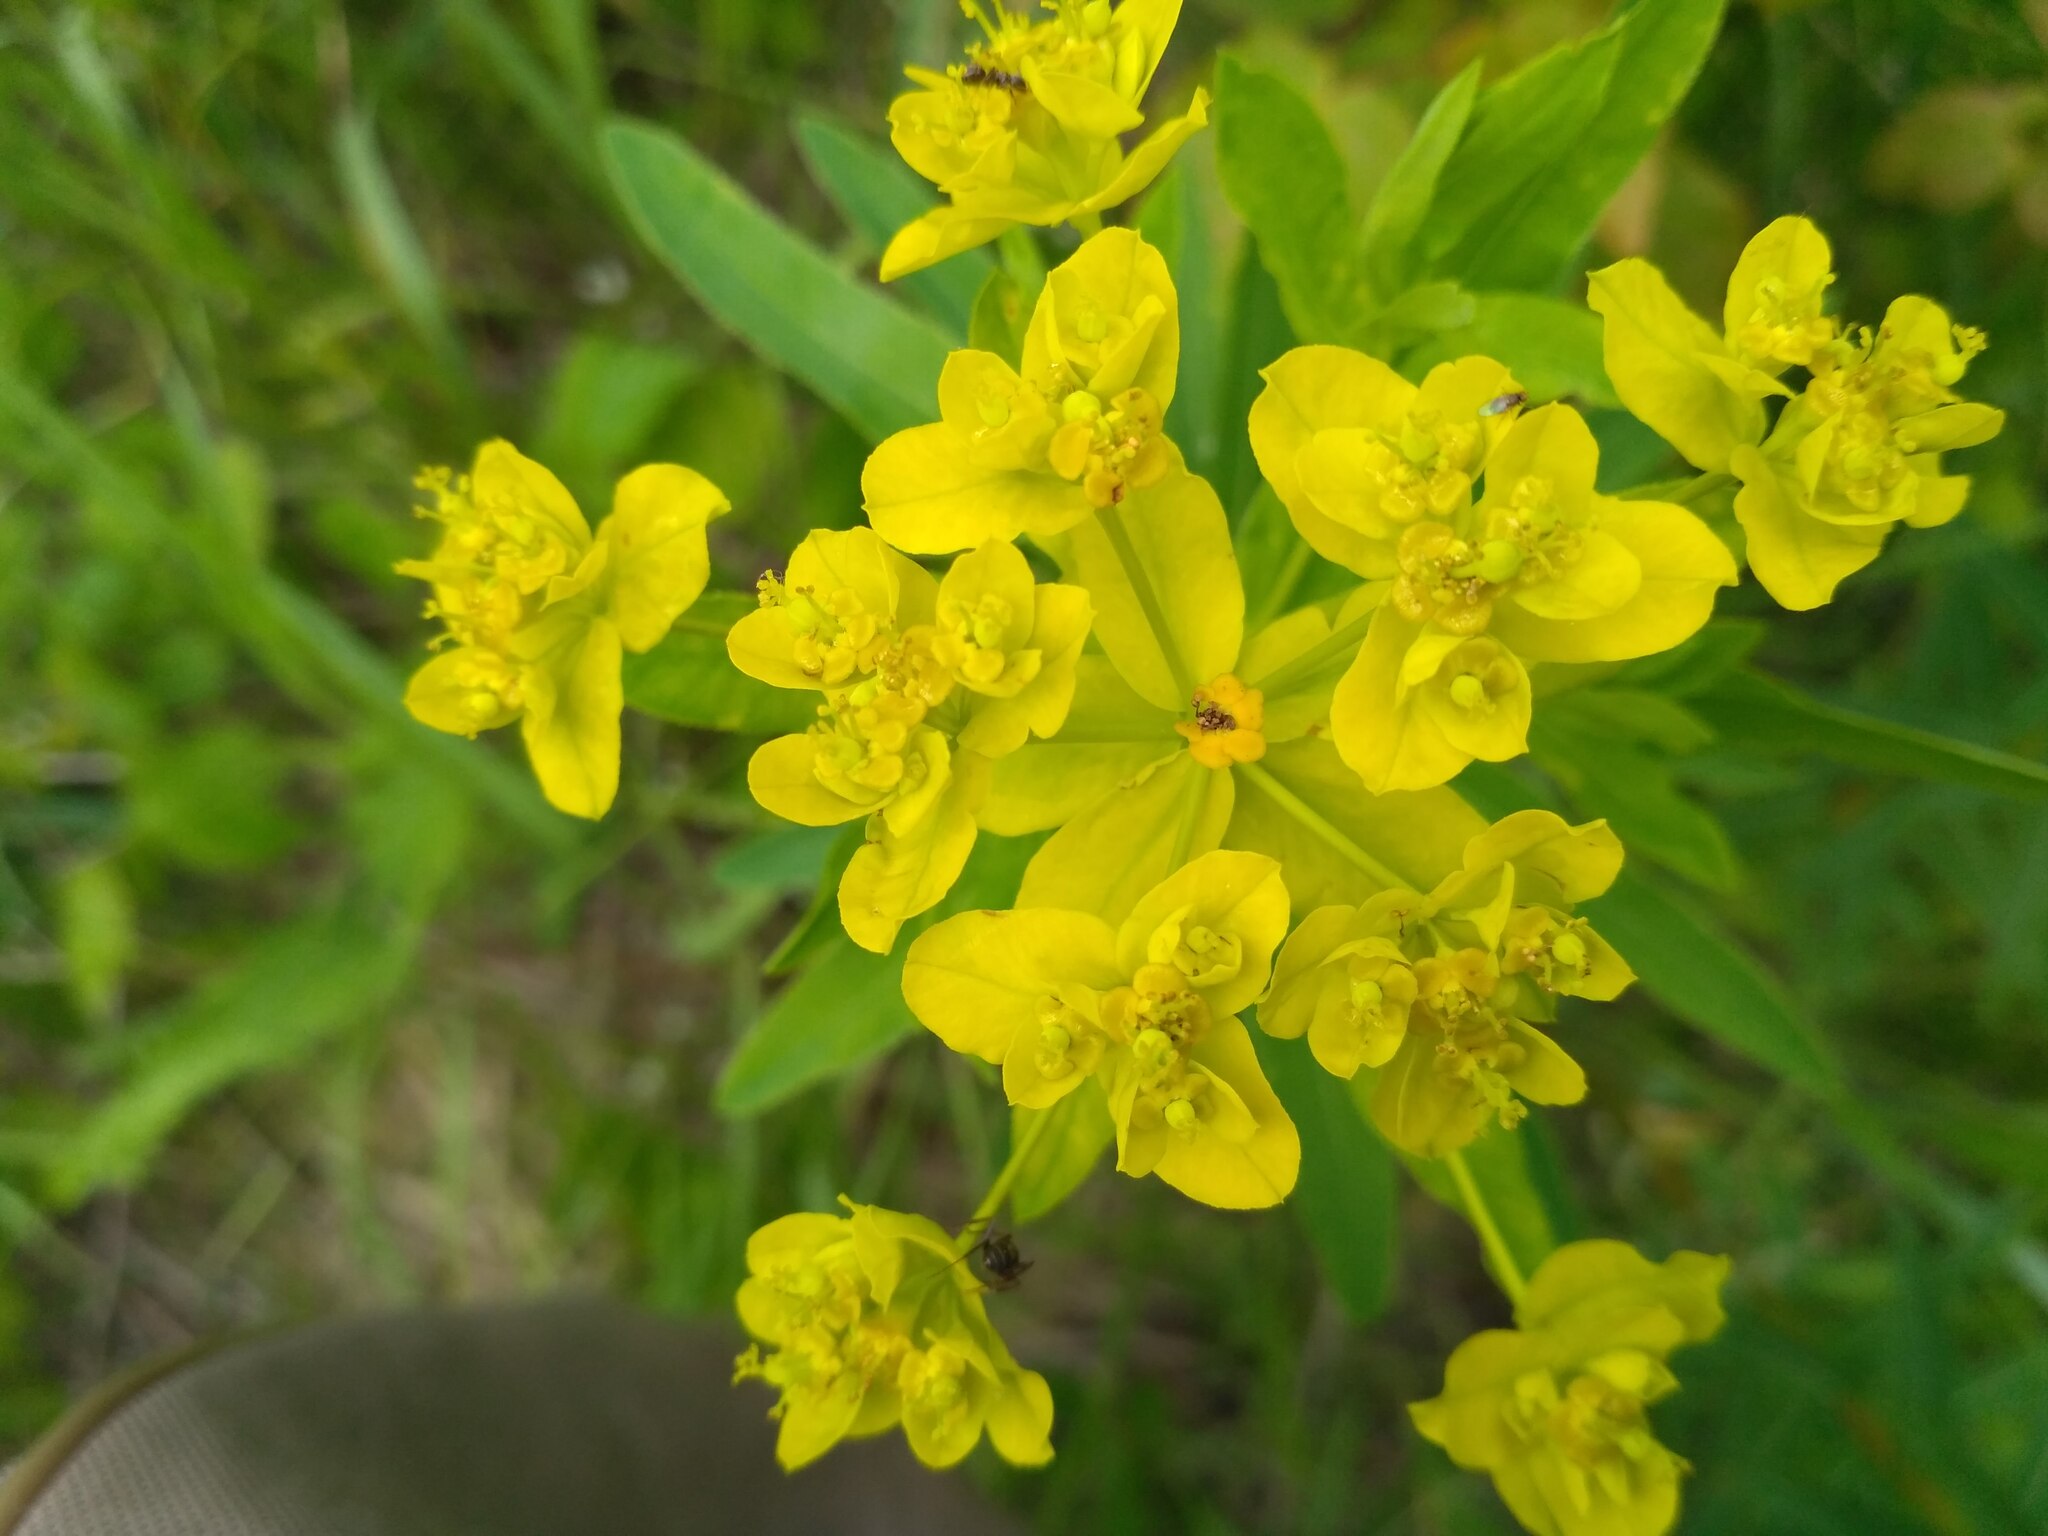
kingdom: Plantae
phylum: Tracheophyta
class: Magnoliopsida
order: Malpighiales
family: Euphorbiaceae
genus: Euphorbia
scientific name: Euphorbia semivillosa
